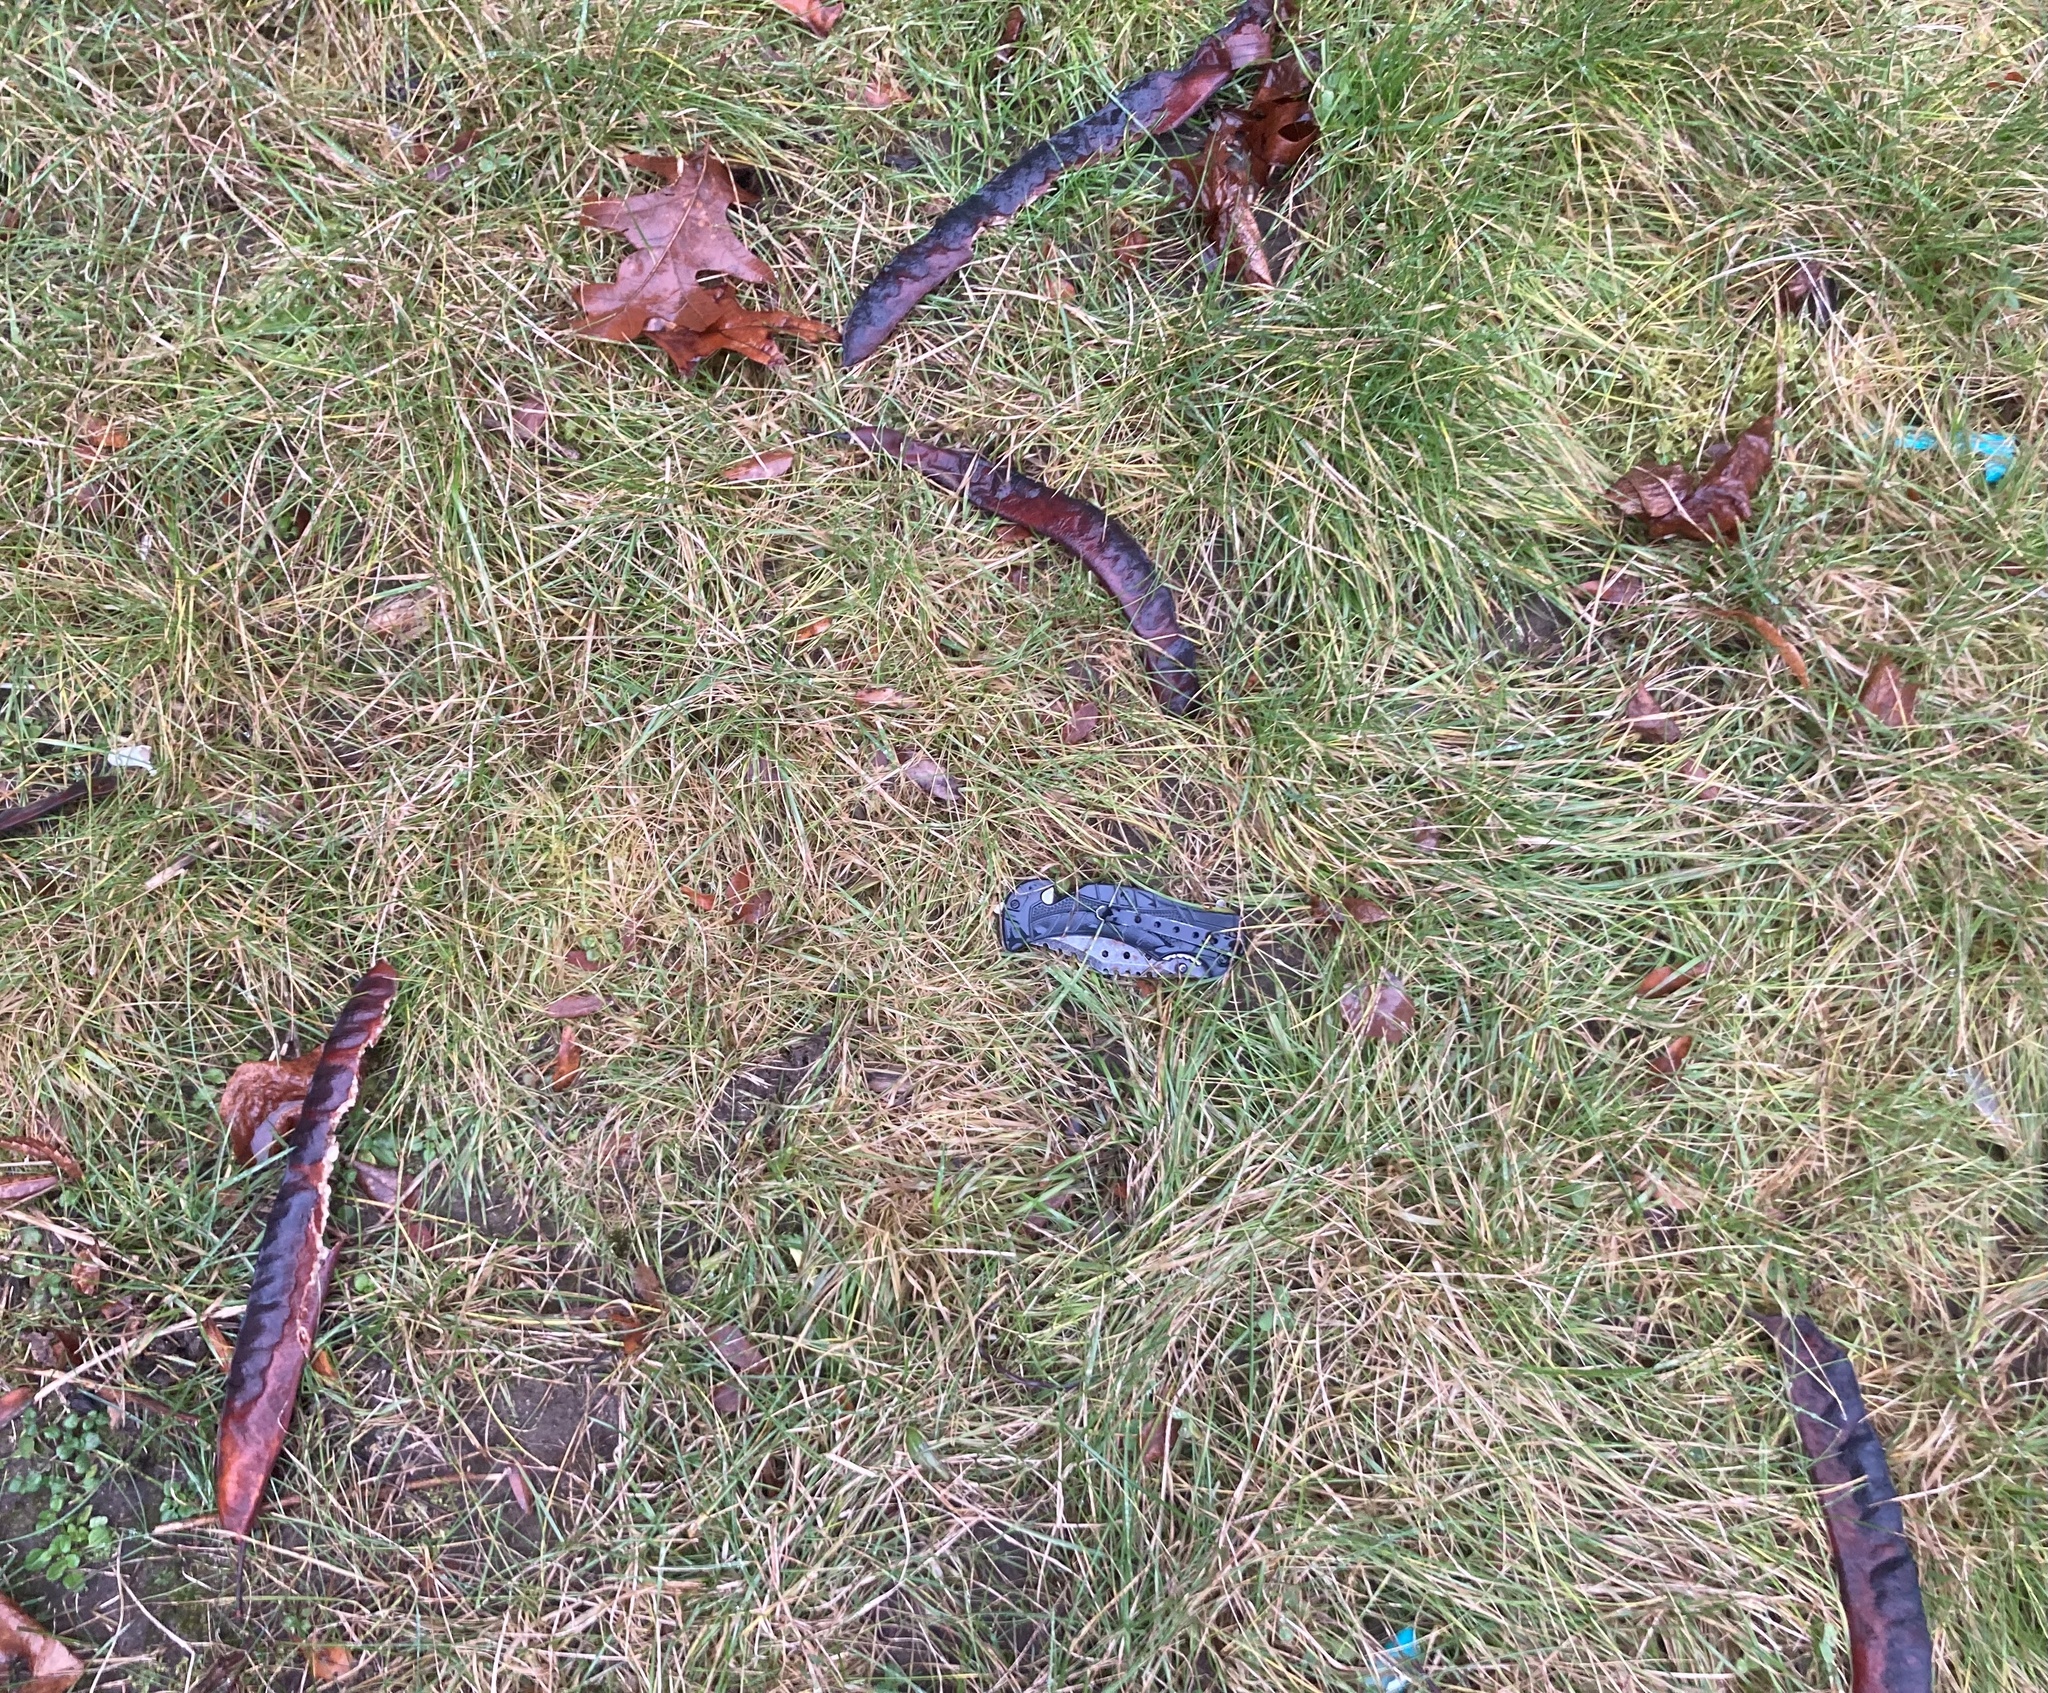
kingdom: Plantae
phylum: Tracheophyta
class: Magnoliopsida
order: Fabales
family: Fabaceae
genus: Gleditsia
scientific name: Gleditsia triacanthos
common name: Common honeylocust
